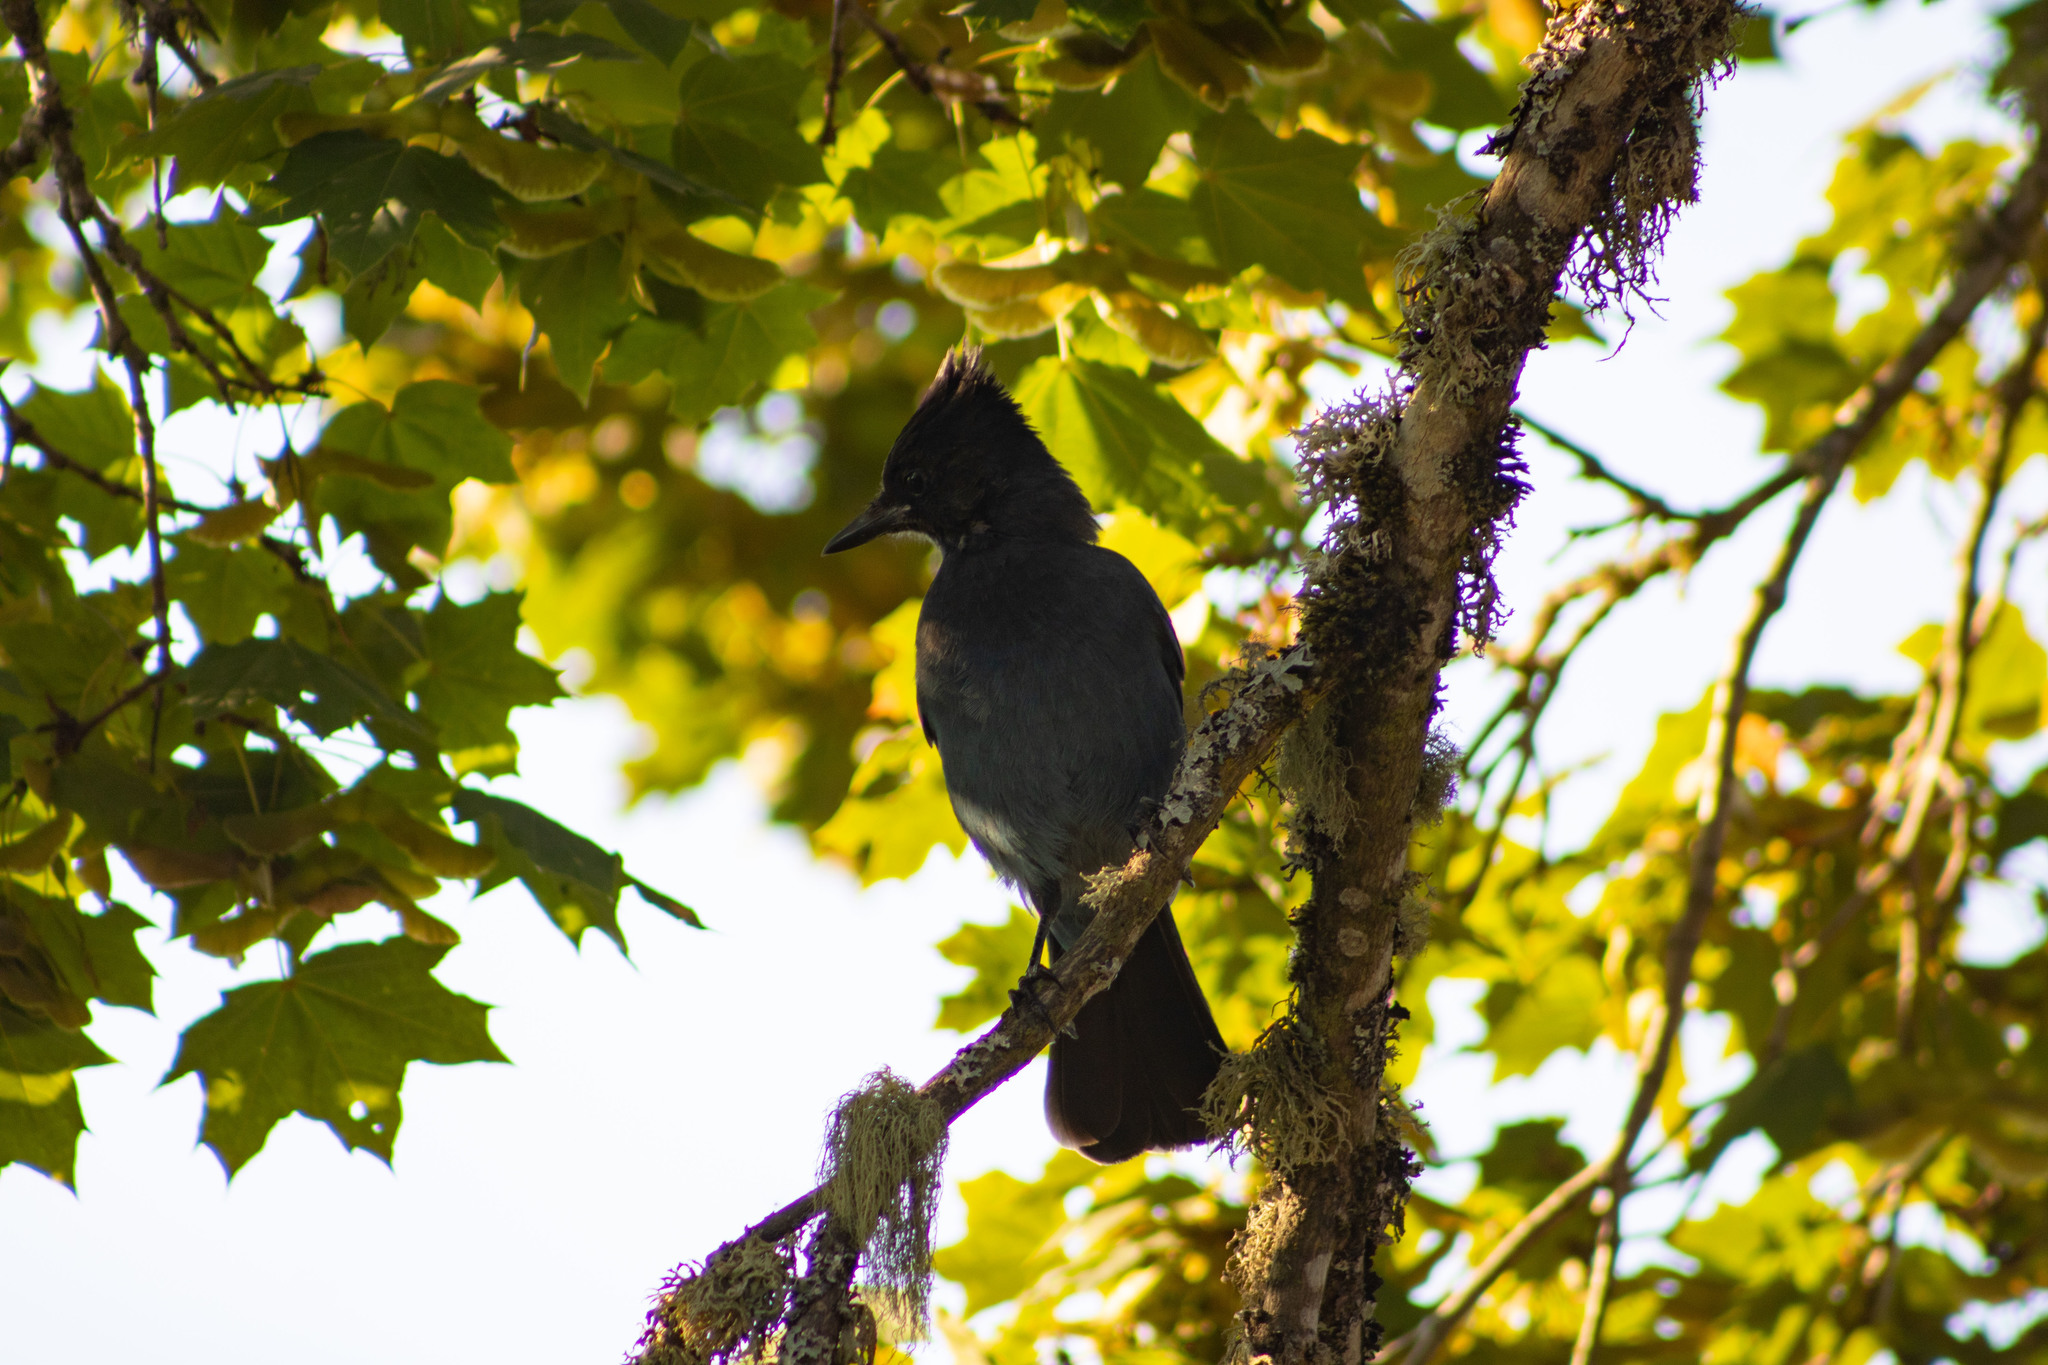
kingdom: Animalia
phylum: Chordata
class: Aves
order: Passeriformes
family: Corvidae
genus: Cyanocitta
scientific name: Cyanocitta stelleri
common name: Steller's jay
